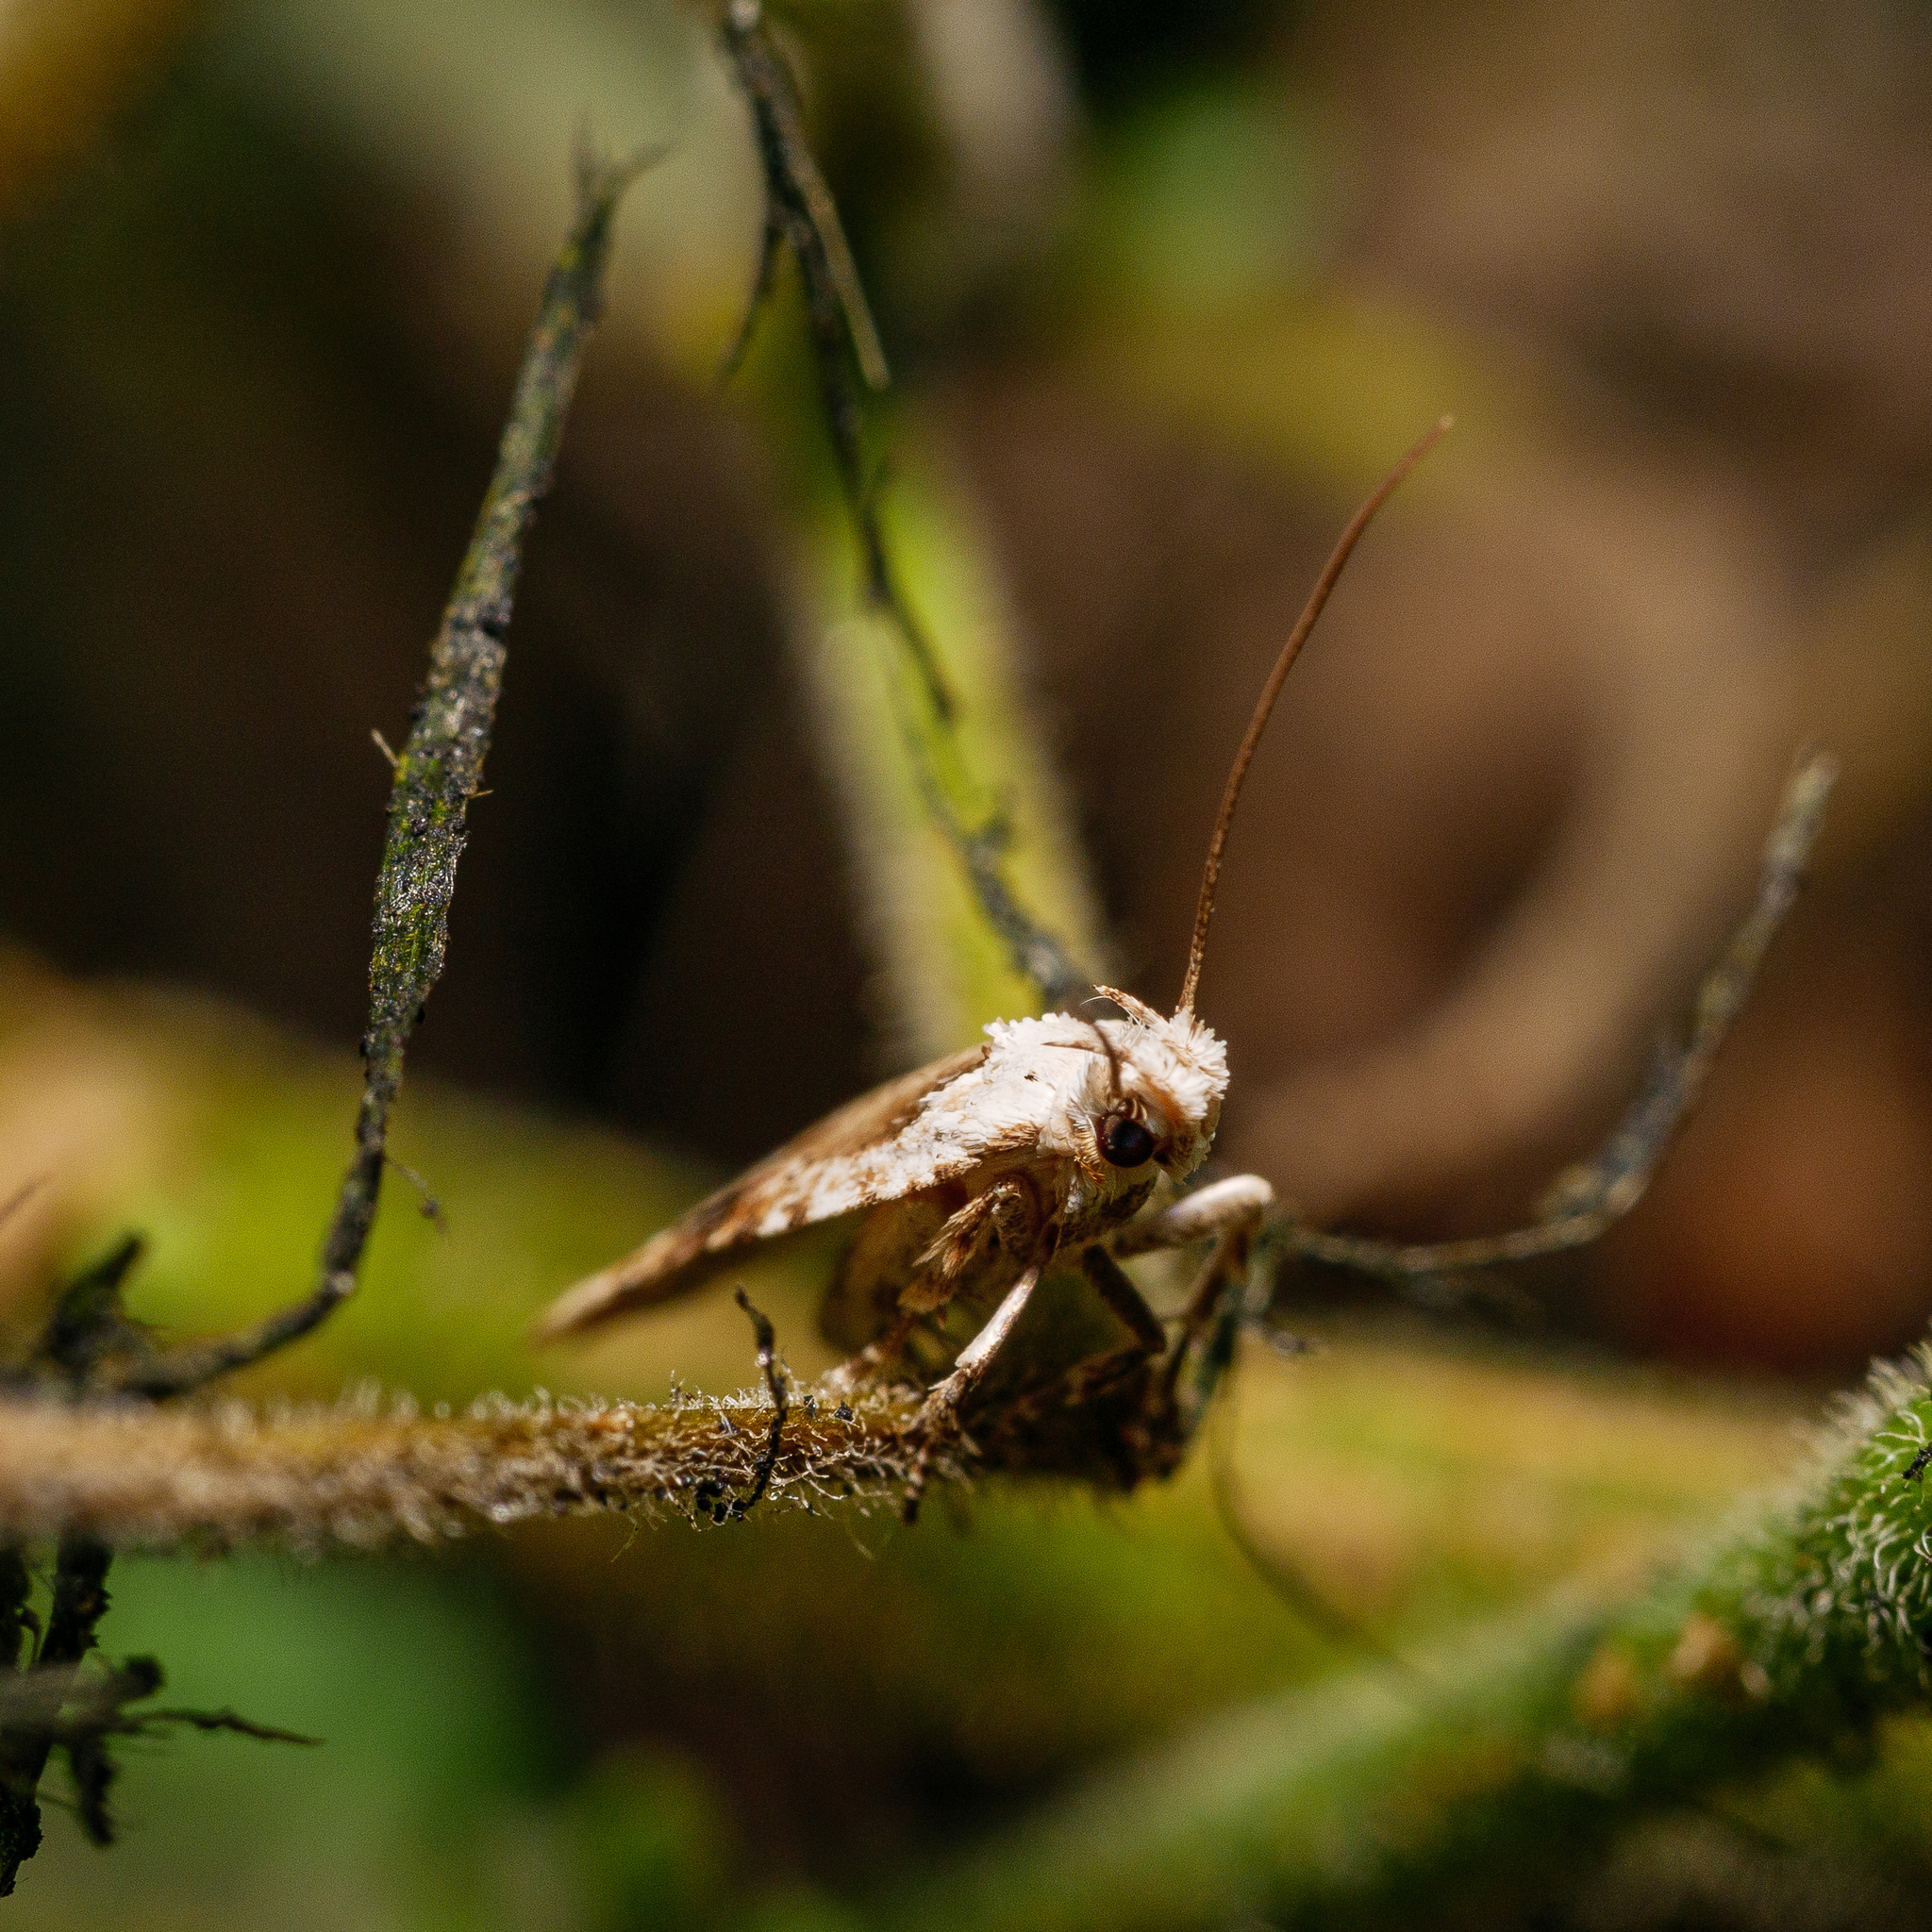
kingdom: Animalia
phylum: Arthropoda
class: Insecta
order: Lepidoptera
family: Depressariidae
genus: Agonopterix
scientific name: Agonopterix alstroemeriana
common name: Moth
